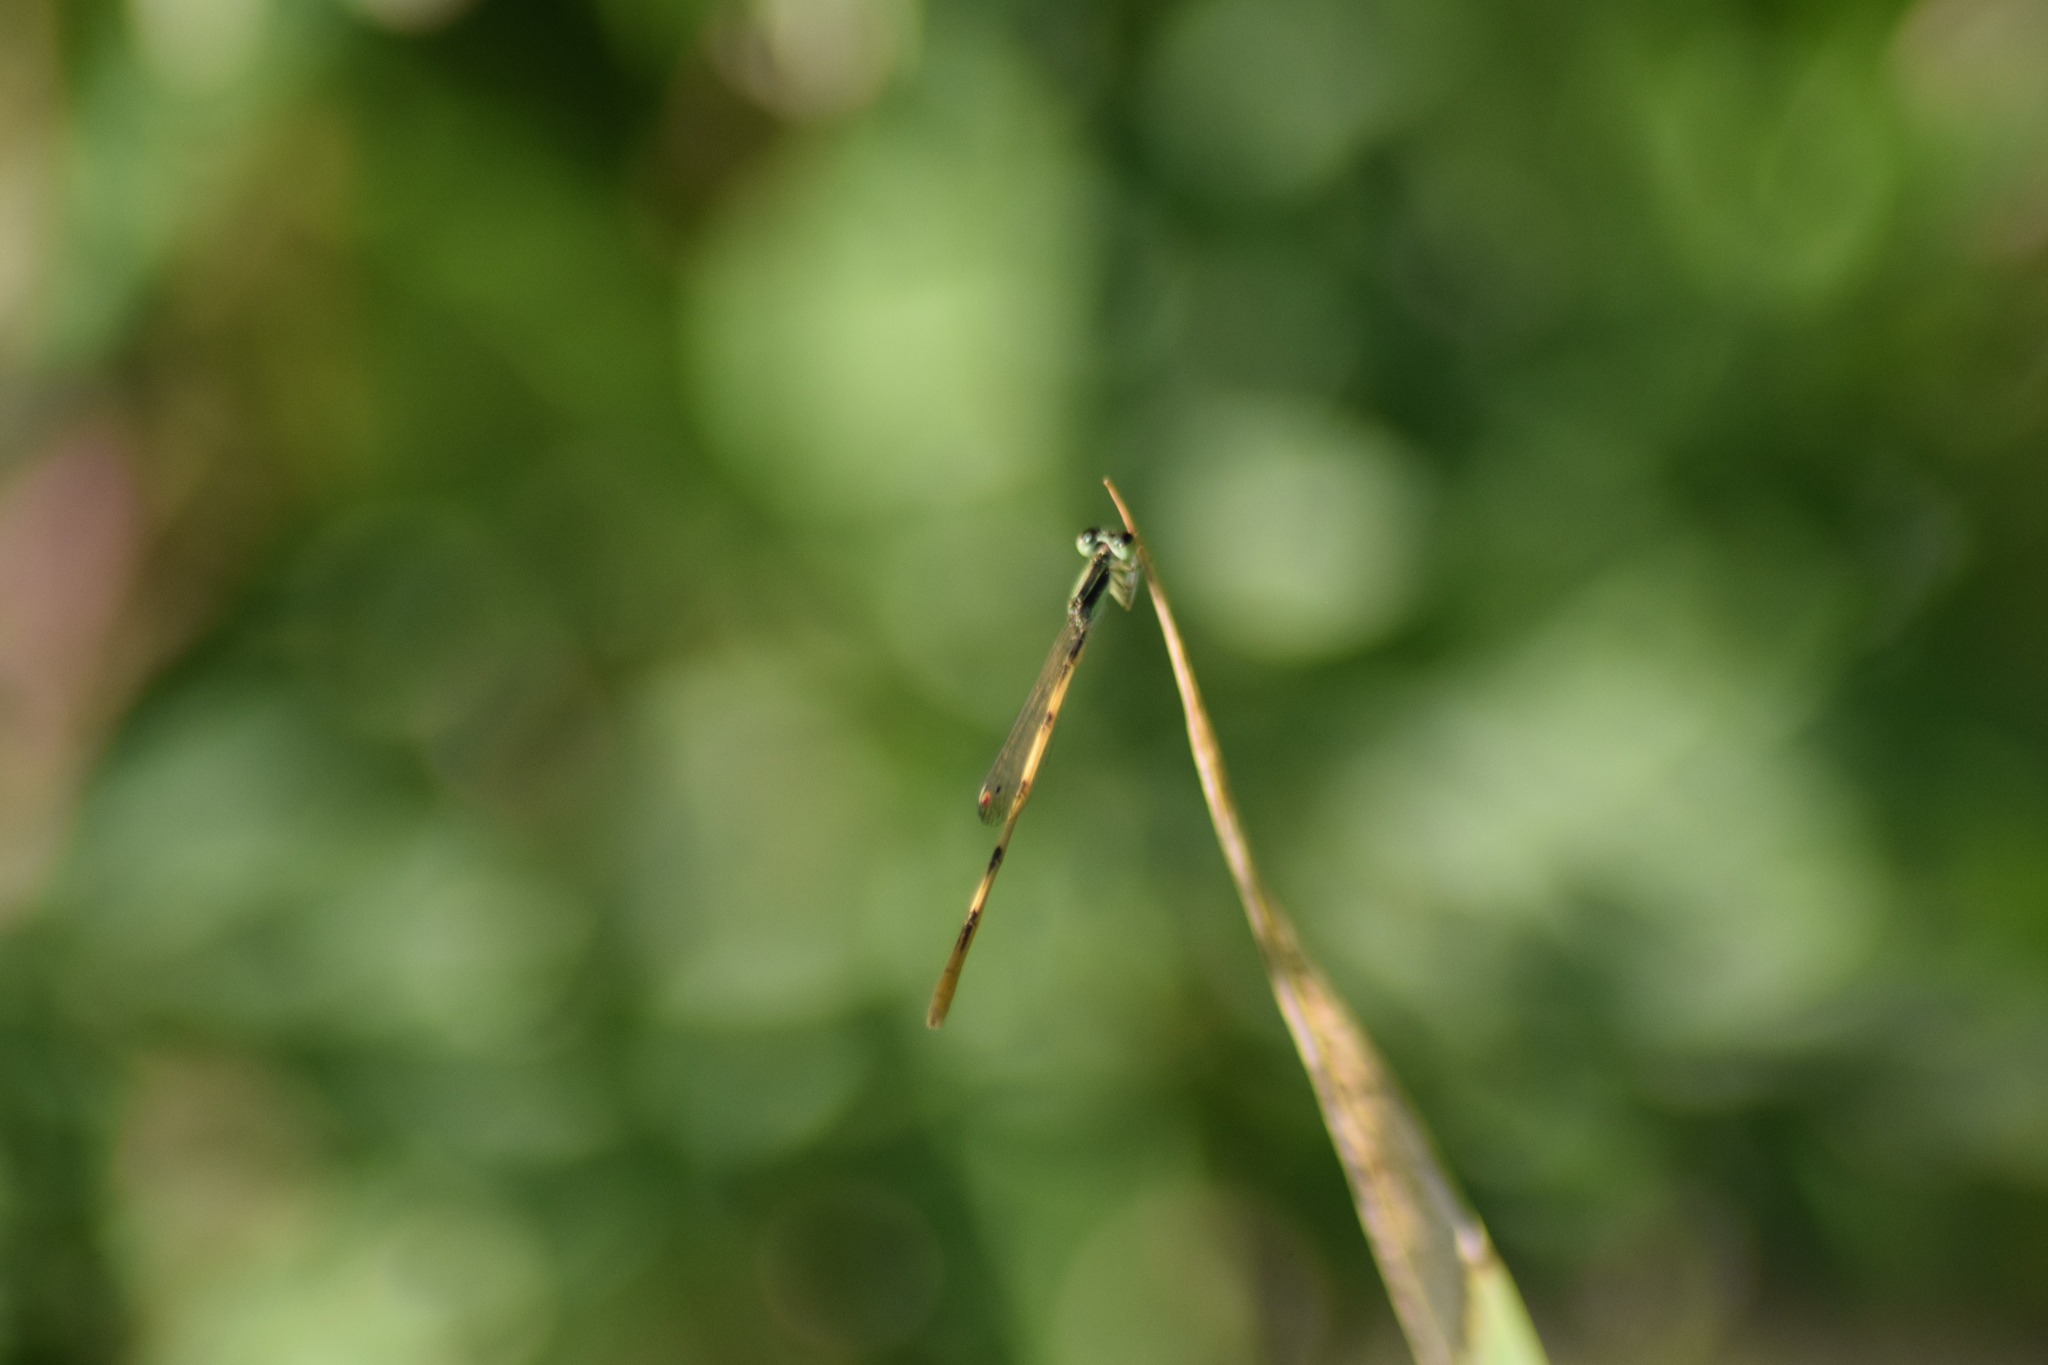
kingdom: Animalia
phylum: Arthropoda
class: Insecta
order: Odonata
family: Coenagrionidae
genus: Ischnura
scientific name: Ischnura hastata
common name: Citrine forktail
